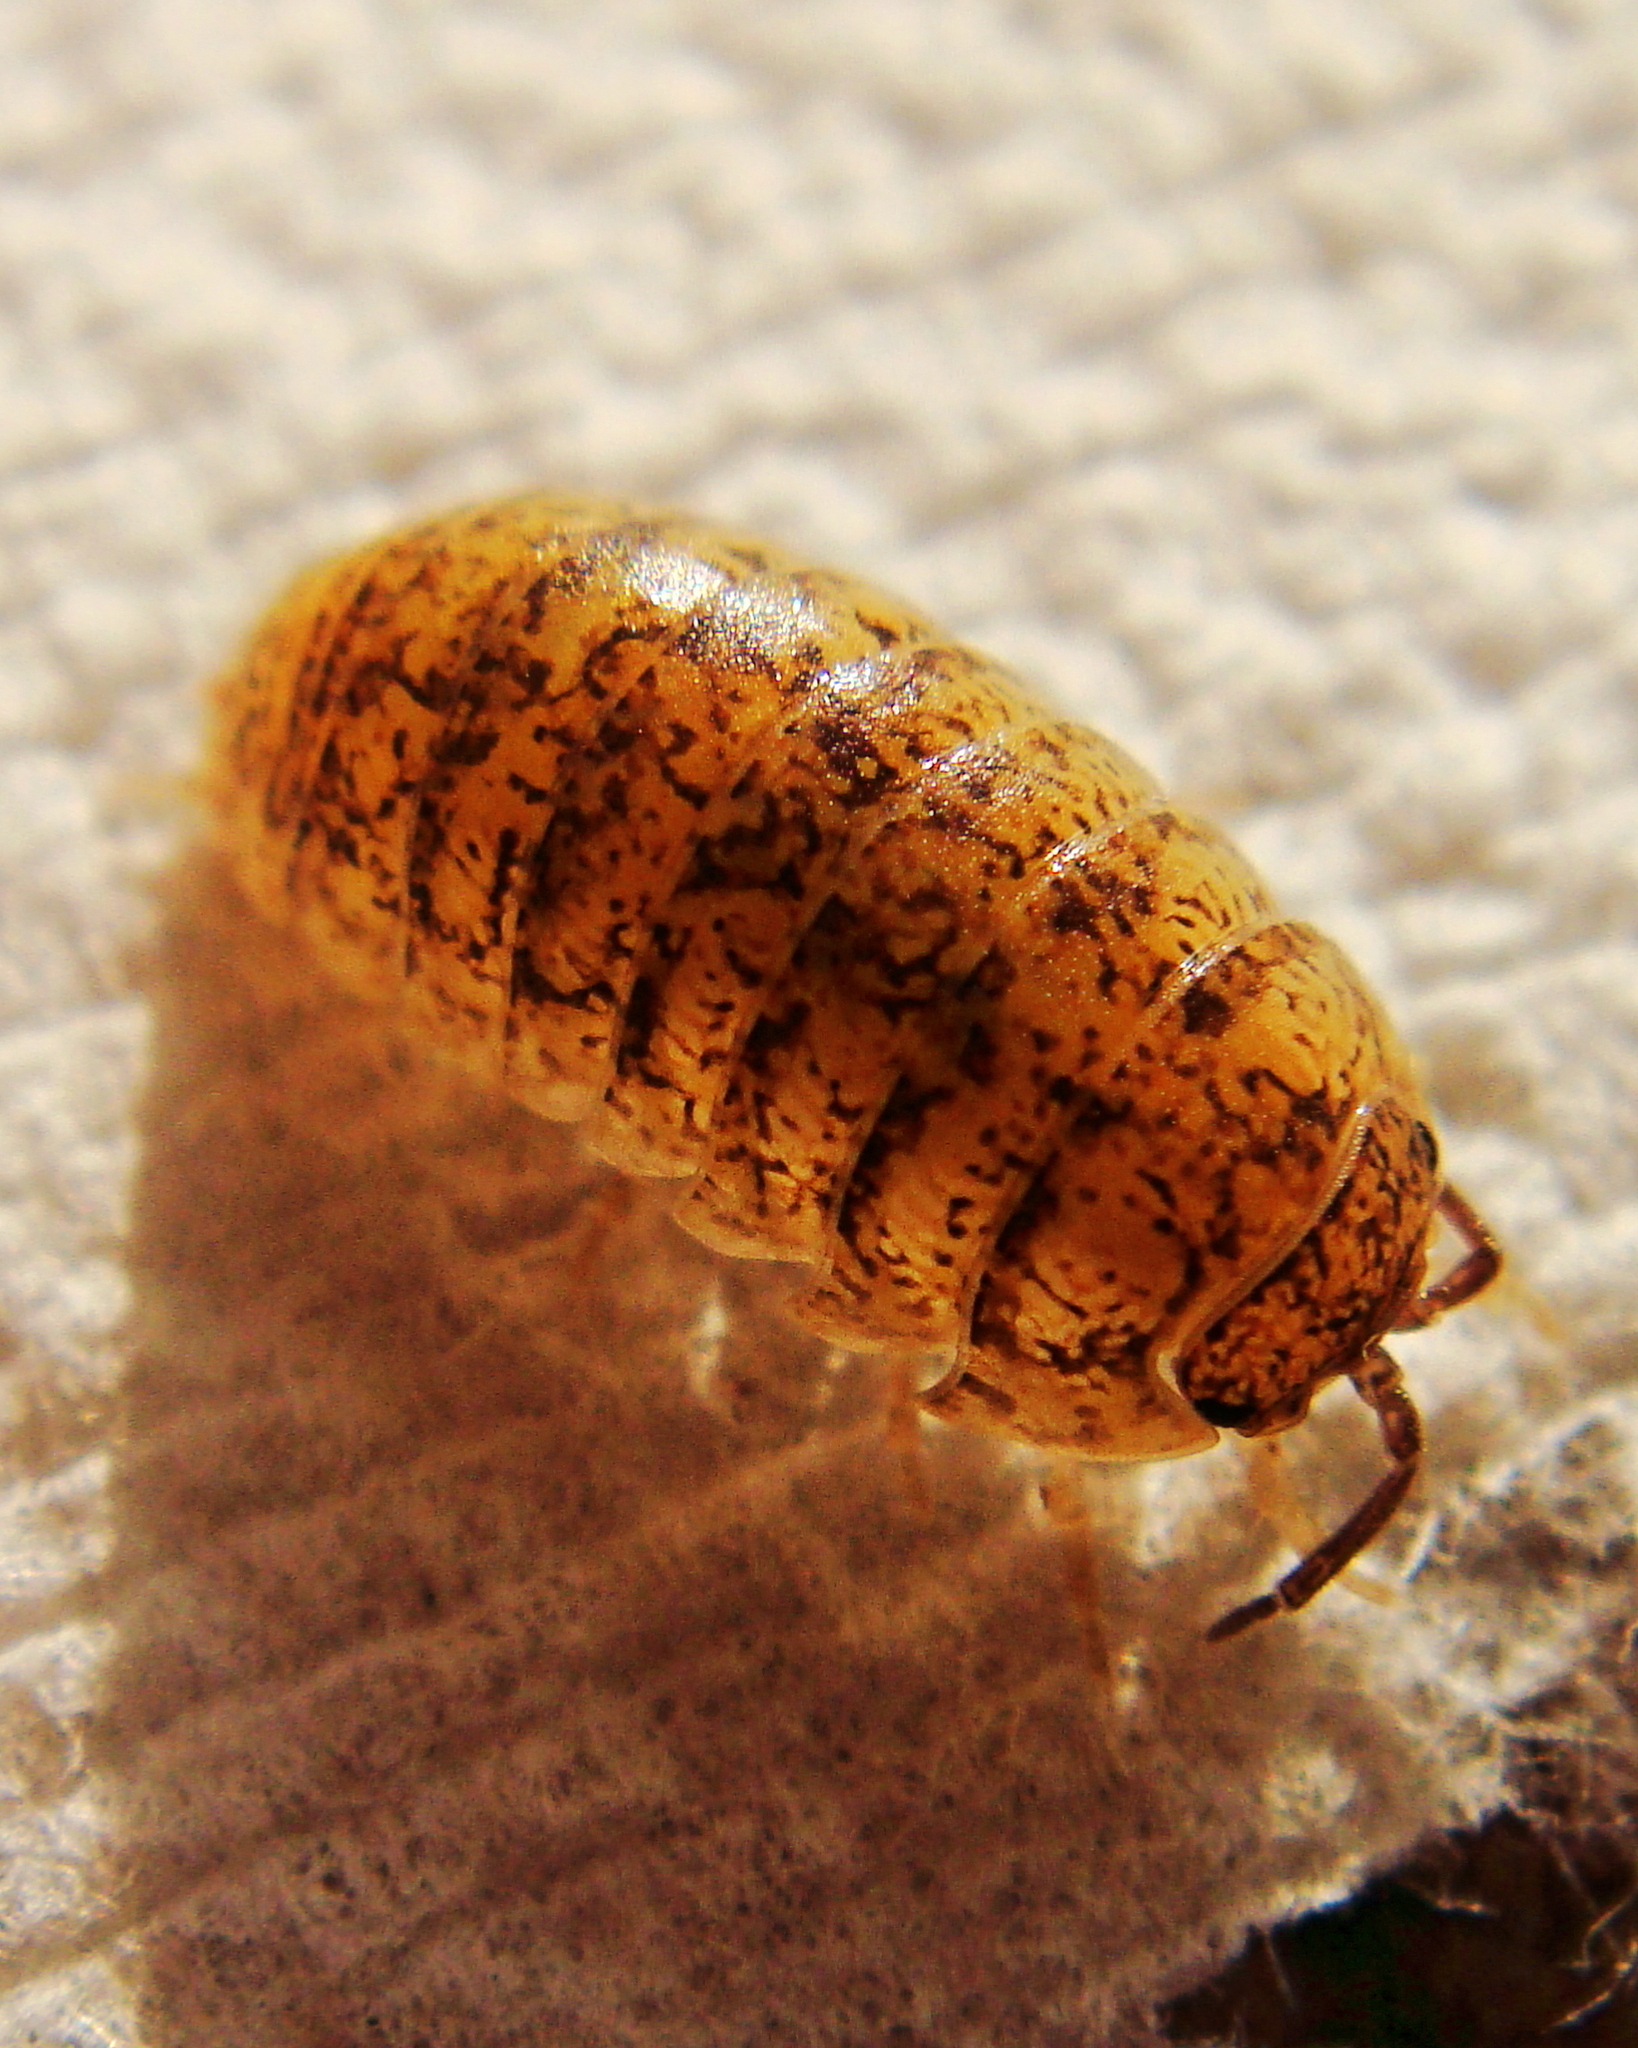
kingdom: Animalia
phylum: Arthropoda
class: Malacostraca
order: Isopoda
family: Armadillidiidae
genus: Armadillidium
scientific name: Armadillidium arcangelii
